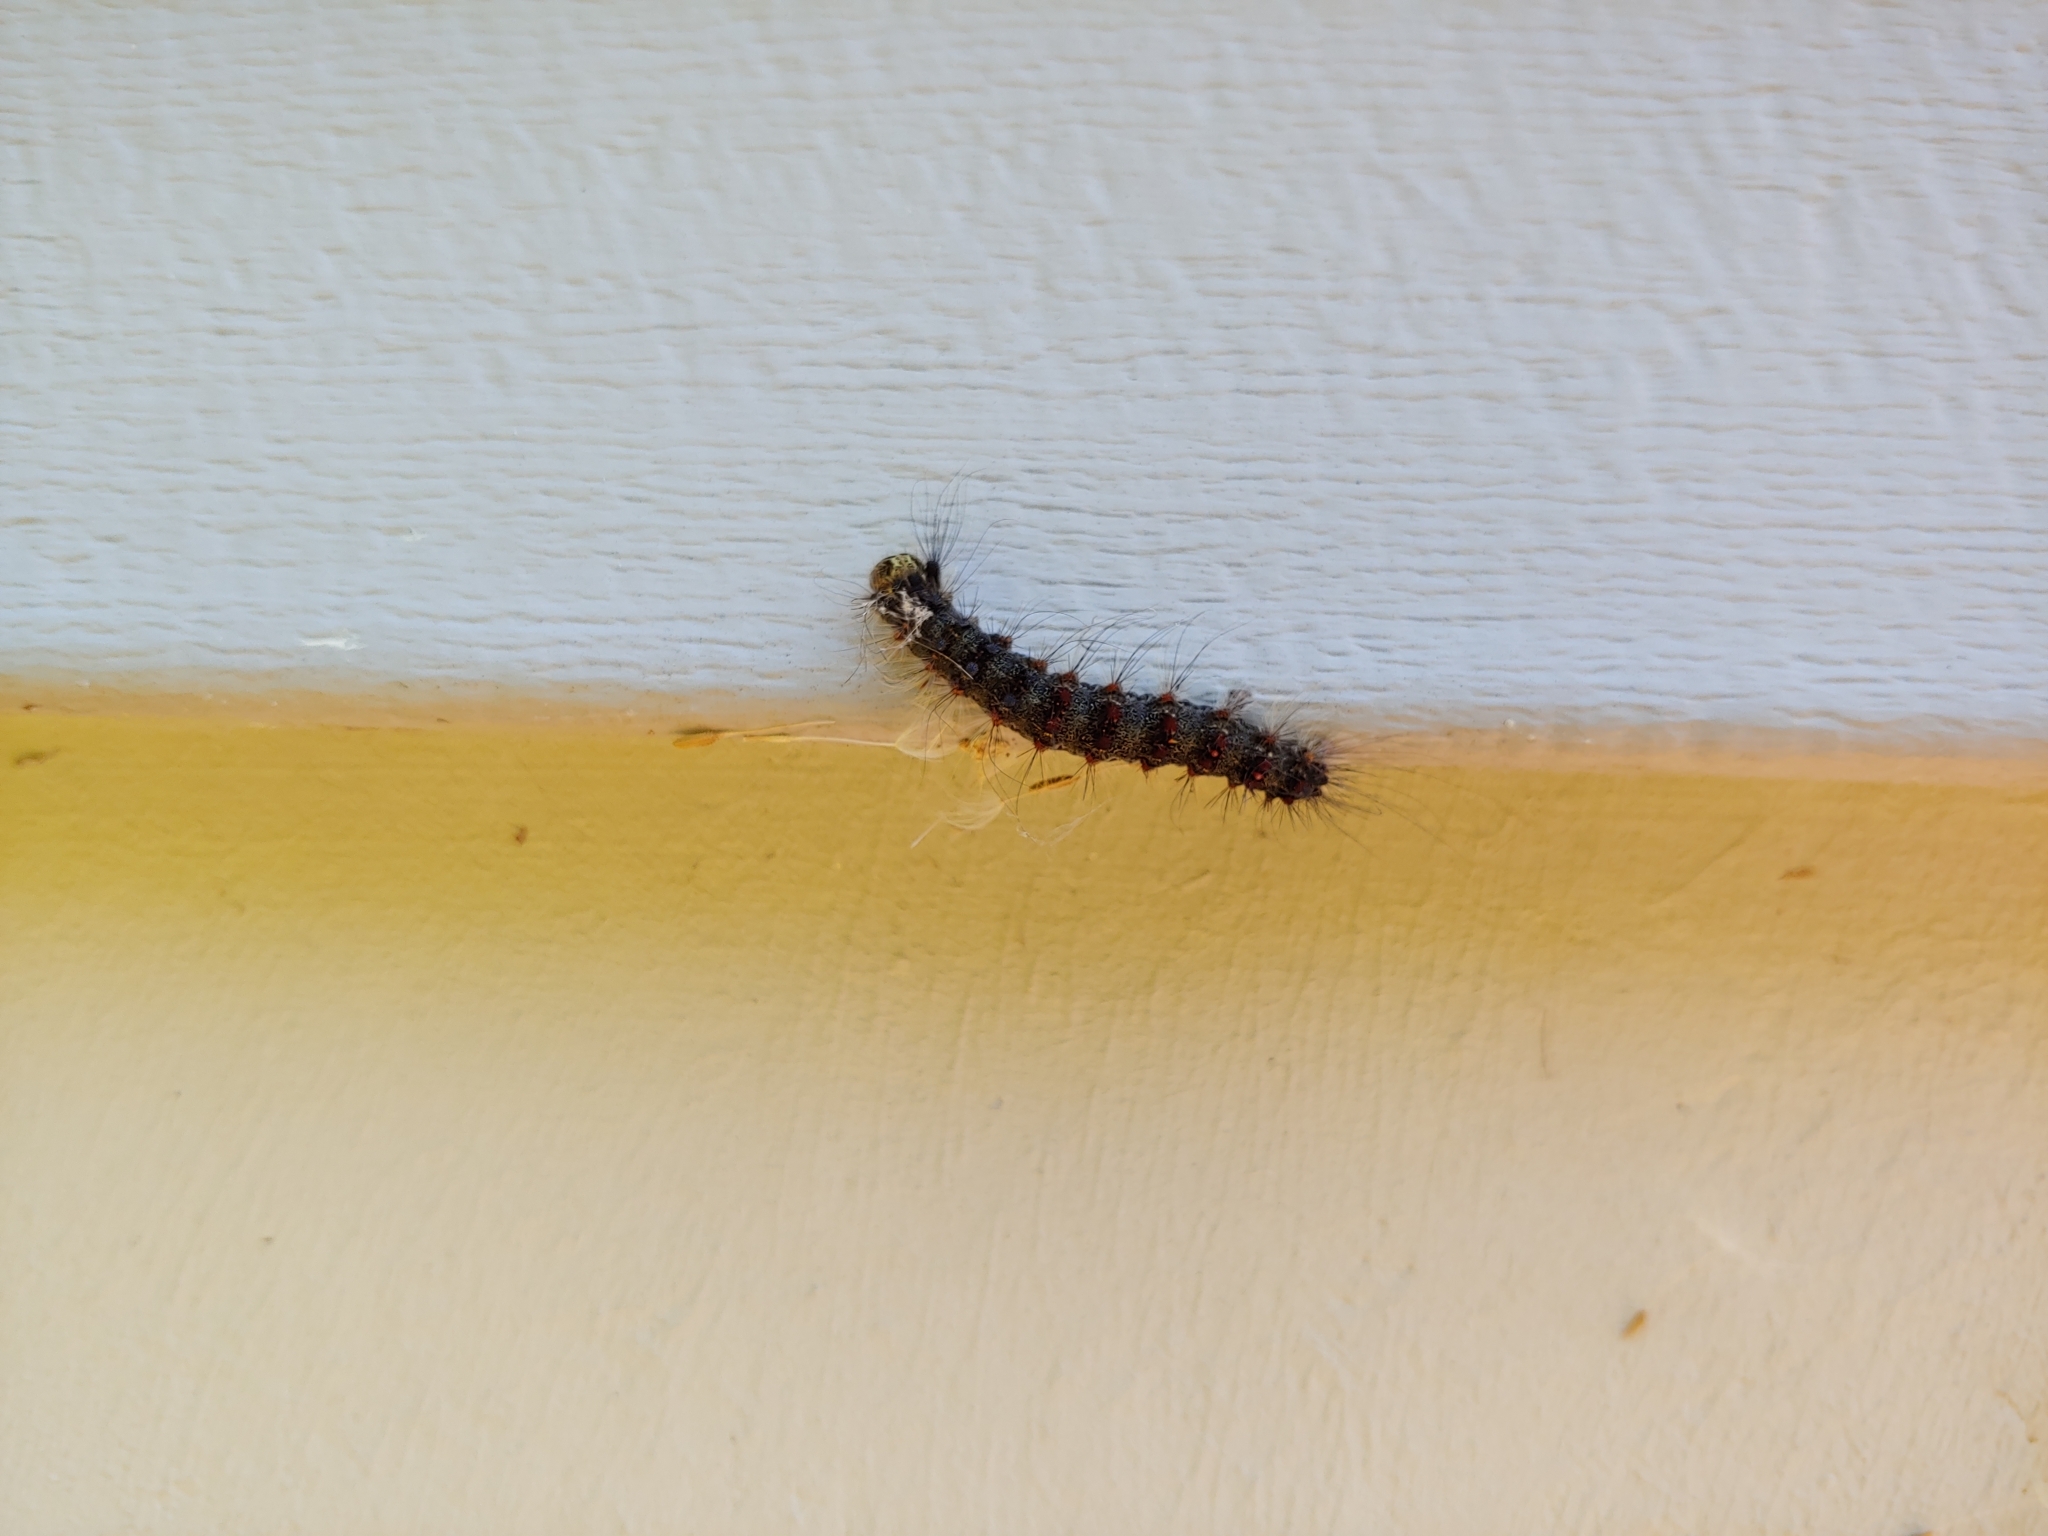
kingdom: Animalia
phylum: Arthropoda
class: Insecta
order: Lepidoptera
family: Erebidae
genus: Lymantria
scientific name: Lymantria dispar
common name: Gypsy moth
